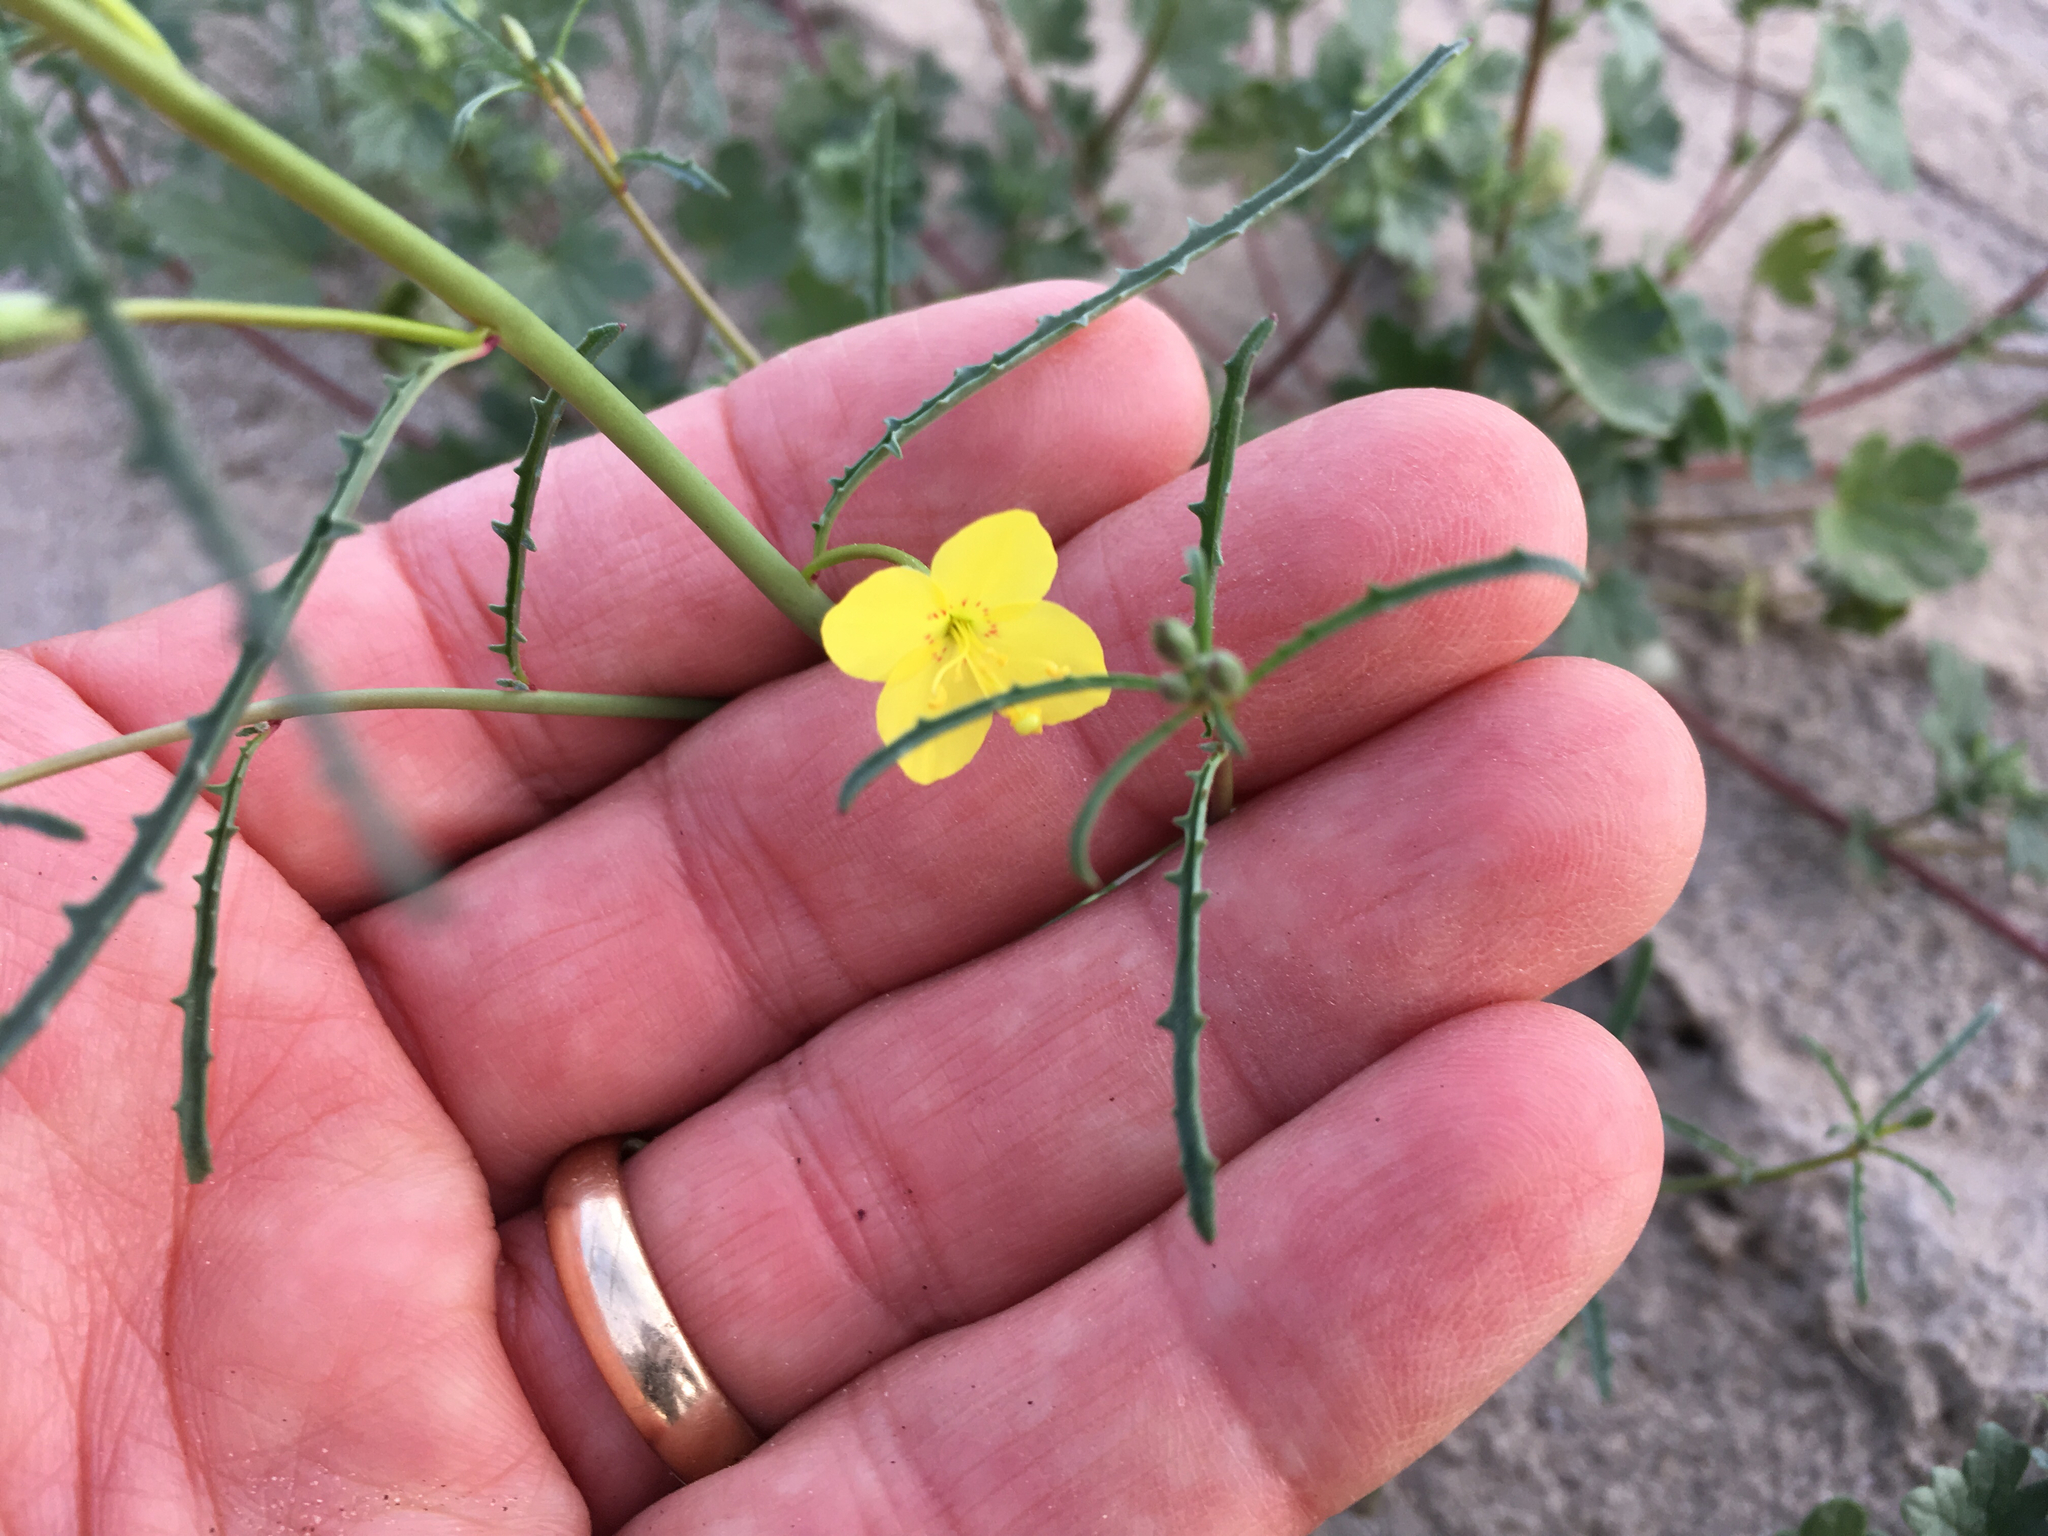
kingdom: Plantae
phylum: Tracheophyta
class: Magnoliopsida
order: Myrtales
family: Onagraceae
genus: Eulobus
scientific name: Eulobus californicus
